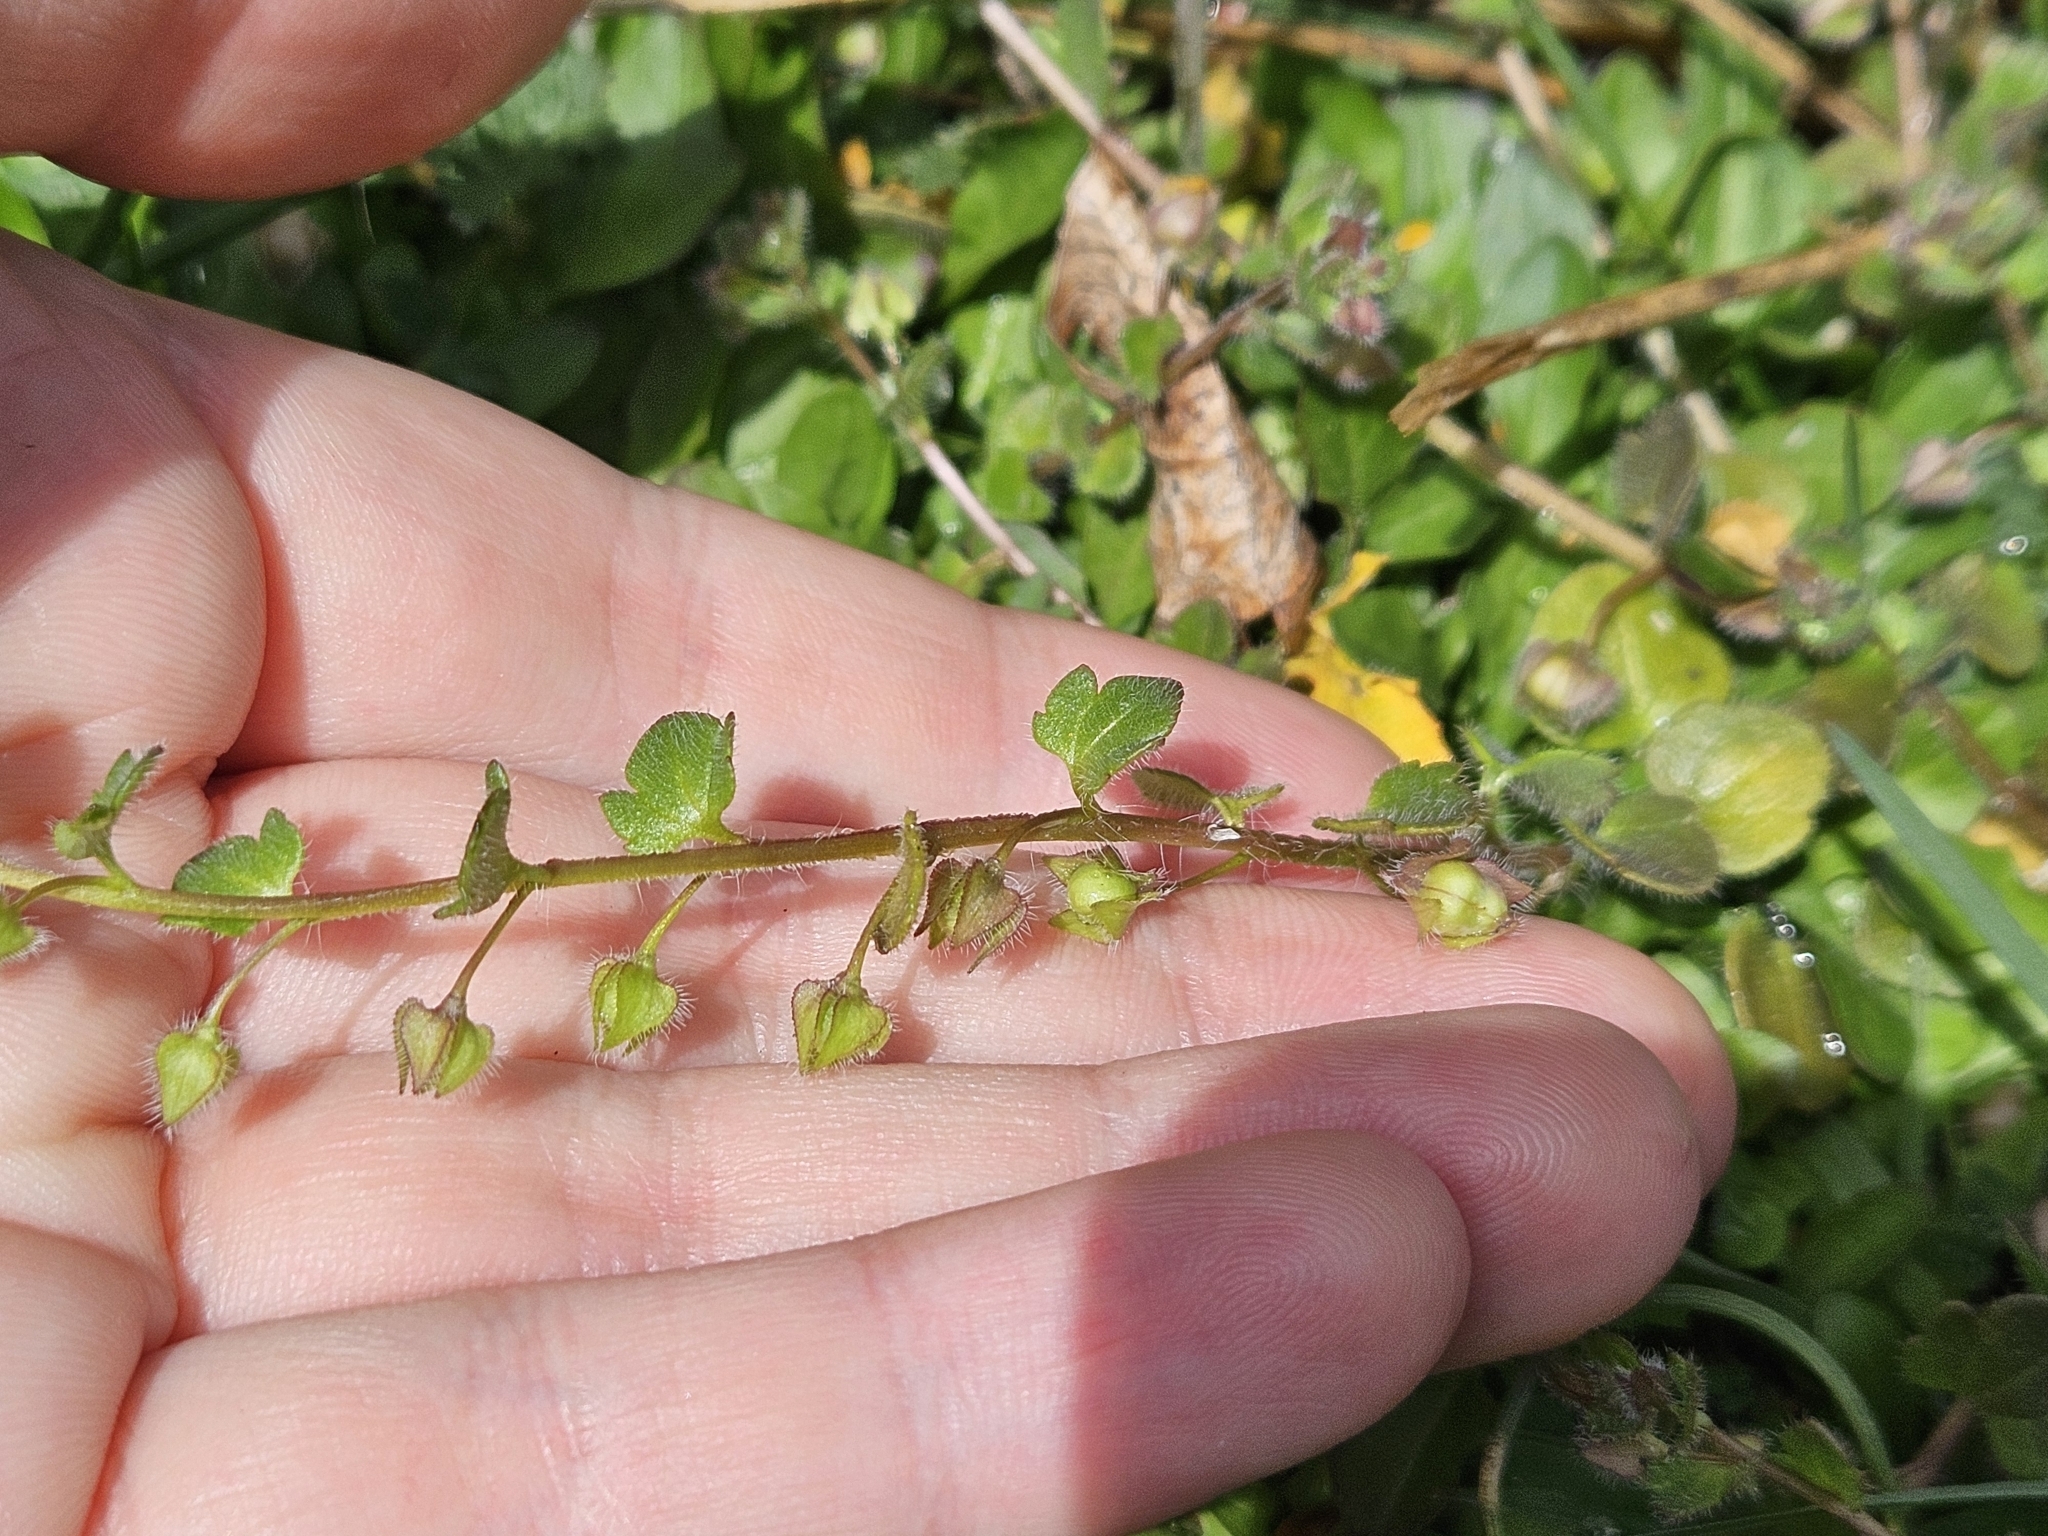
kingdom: Plantae
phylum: Tracheophyta
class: Magnoliopsida
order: Lamiales
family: Plantaginaceae
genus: Veronica
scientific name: Veronica hederifolia
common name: Ivy-leaved speedwell
